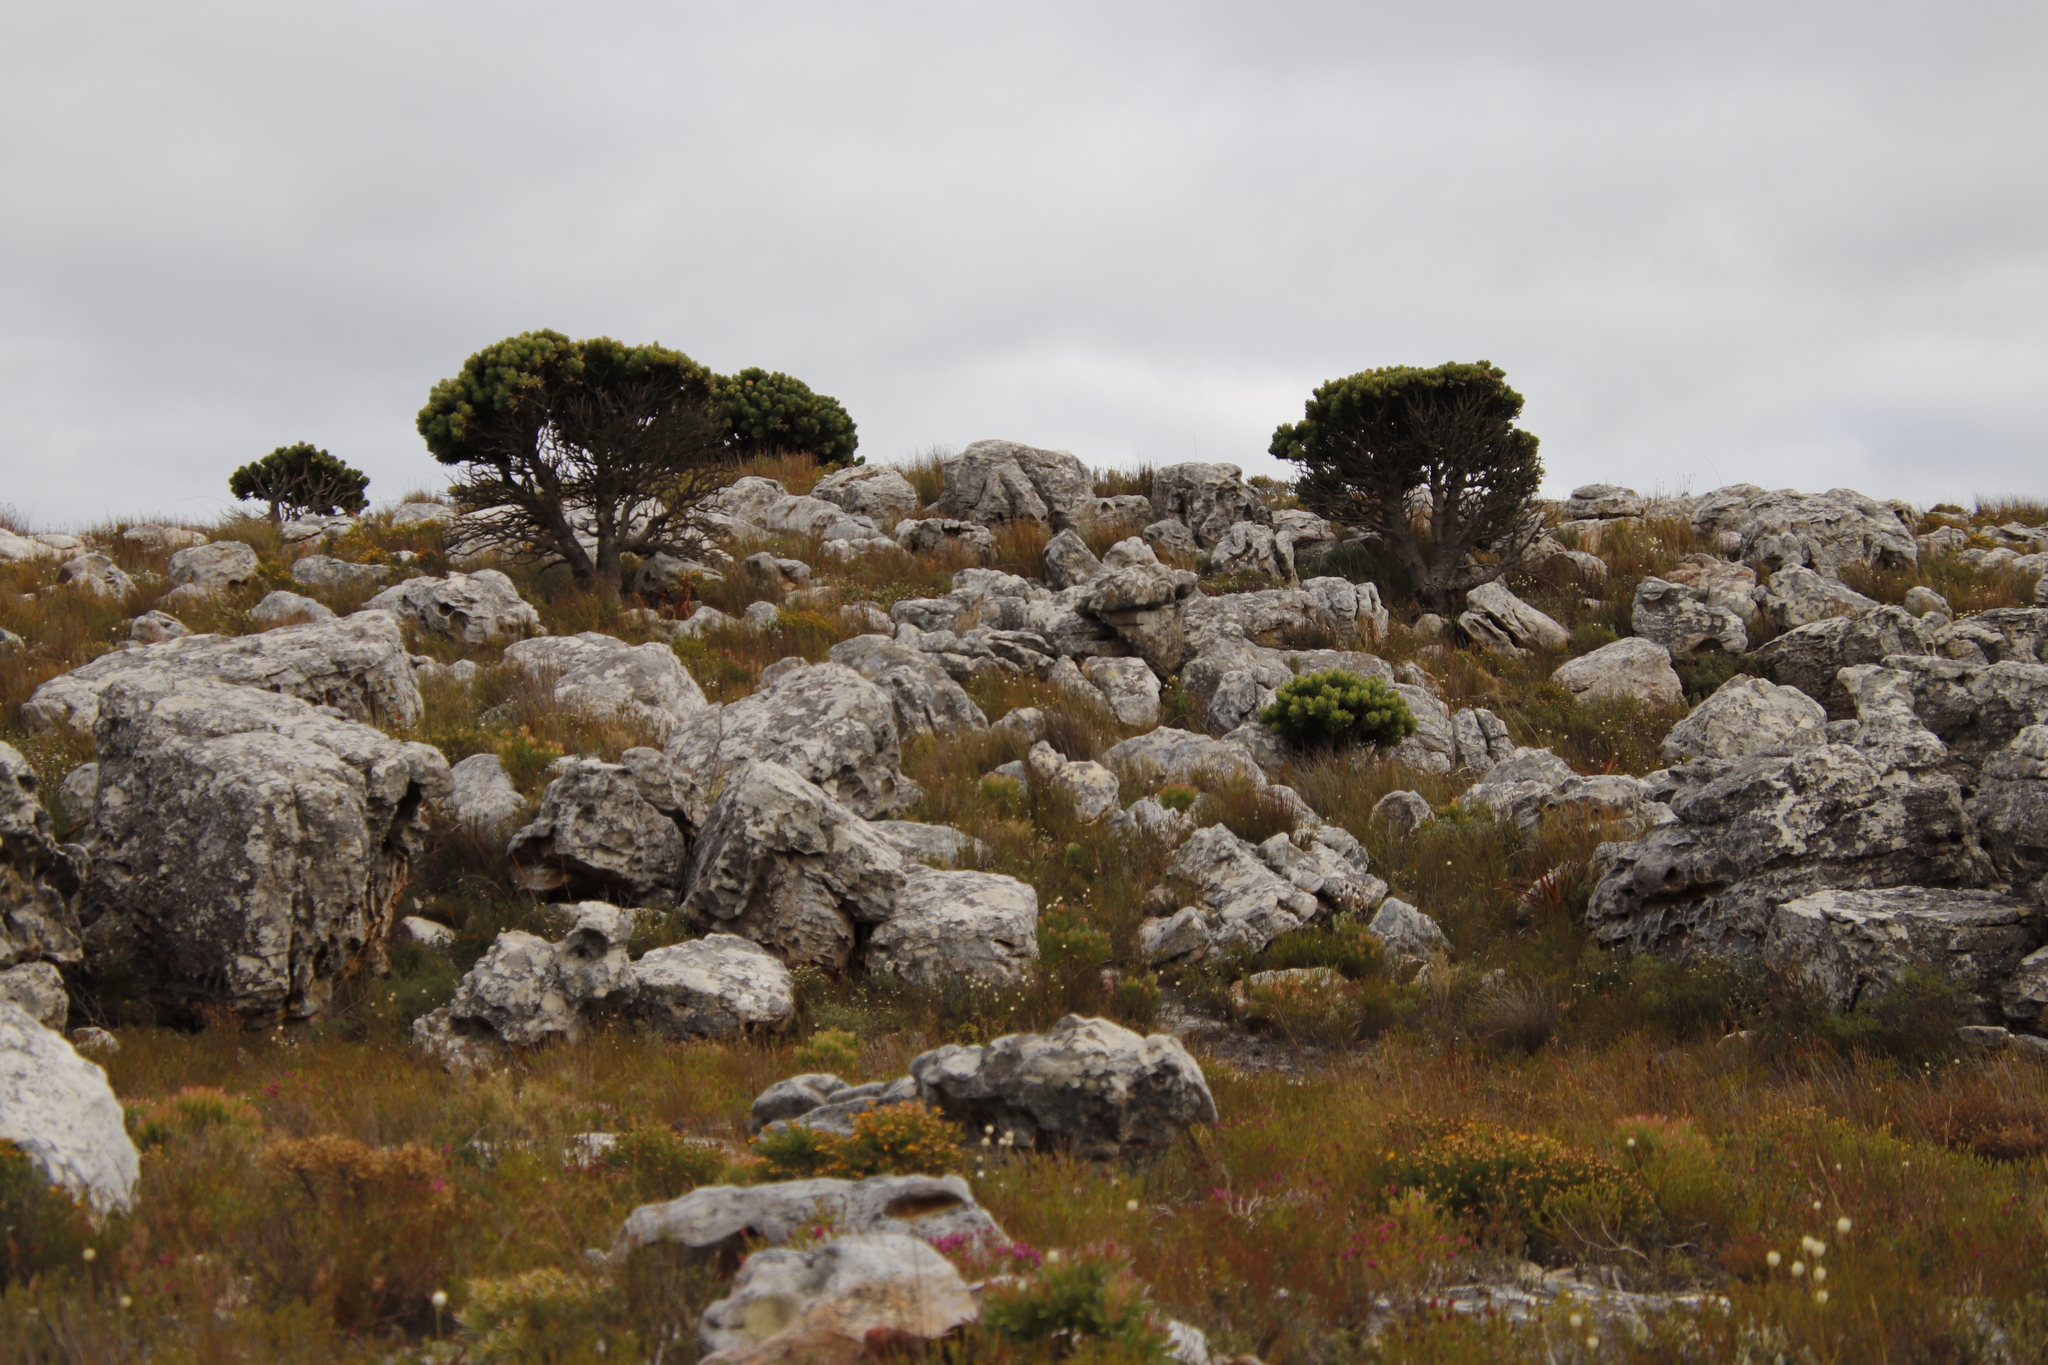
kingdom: Plantae
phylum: Tracheophyta
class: Magnoliopsida
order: Proteales
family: Proteaceae
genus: Mimetes
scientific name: Mimetes fimbriifolius
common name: Fringed bottlebrush
